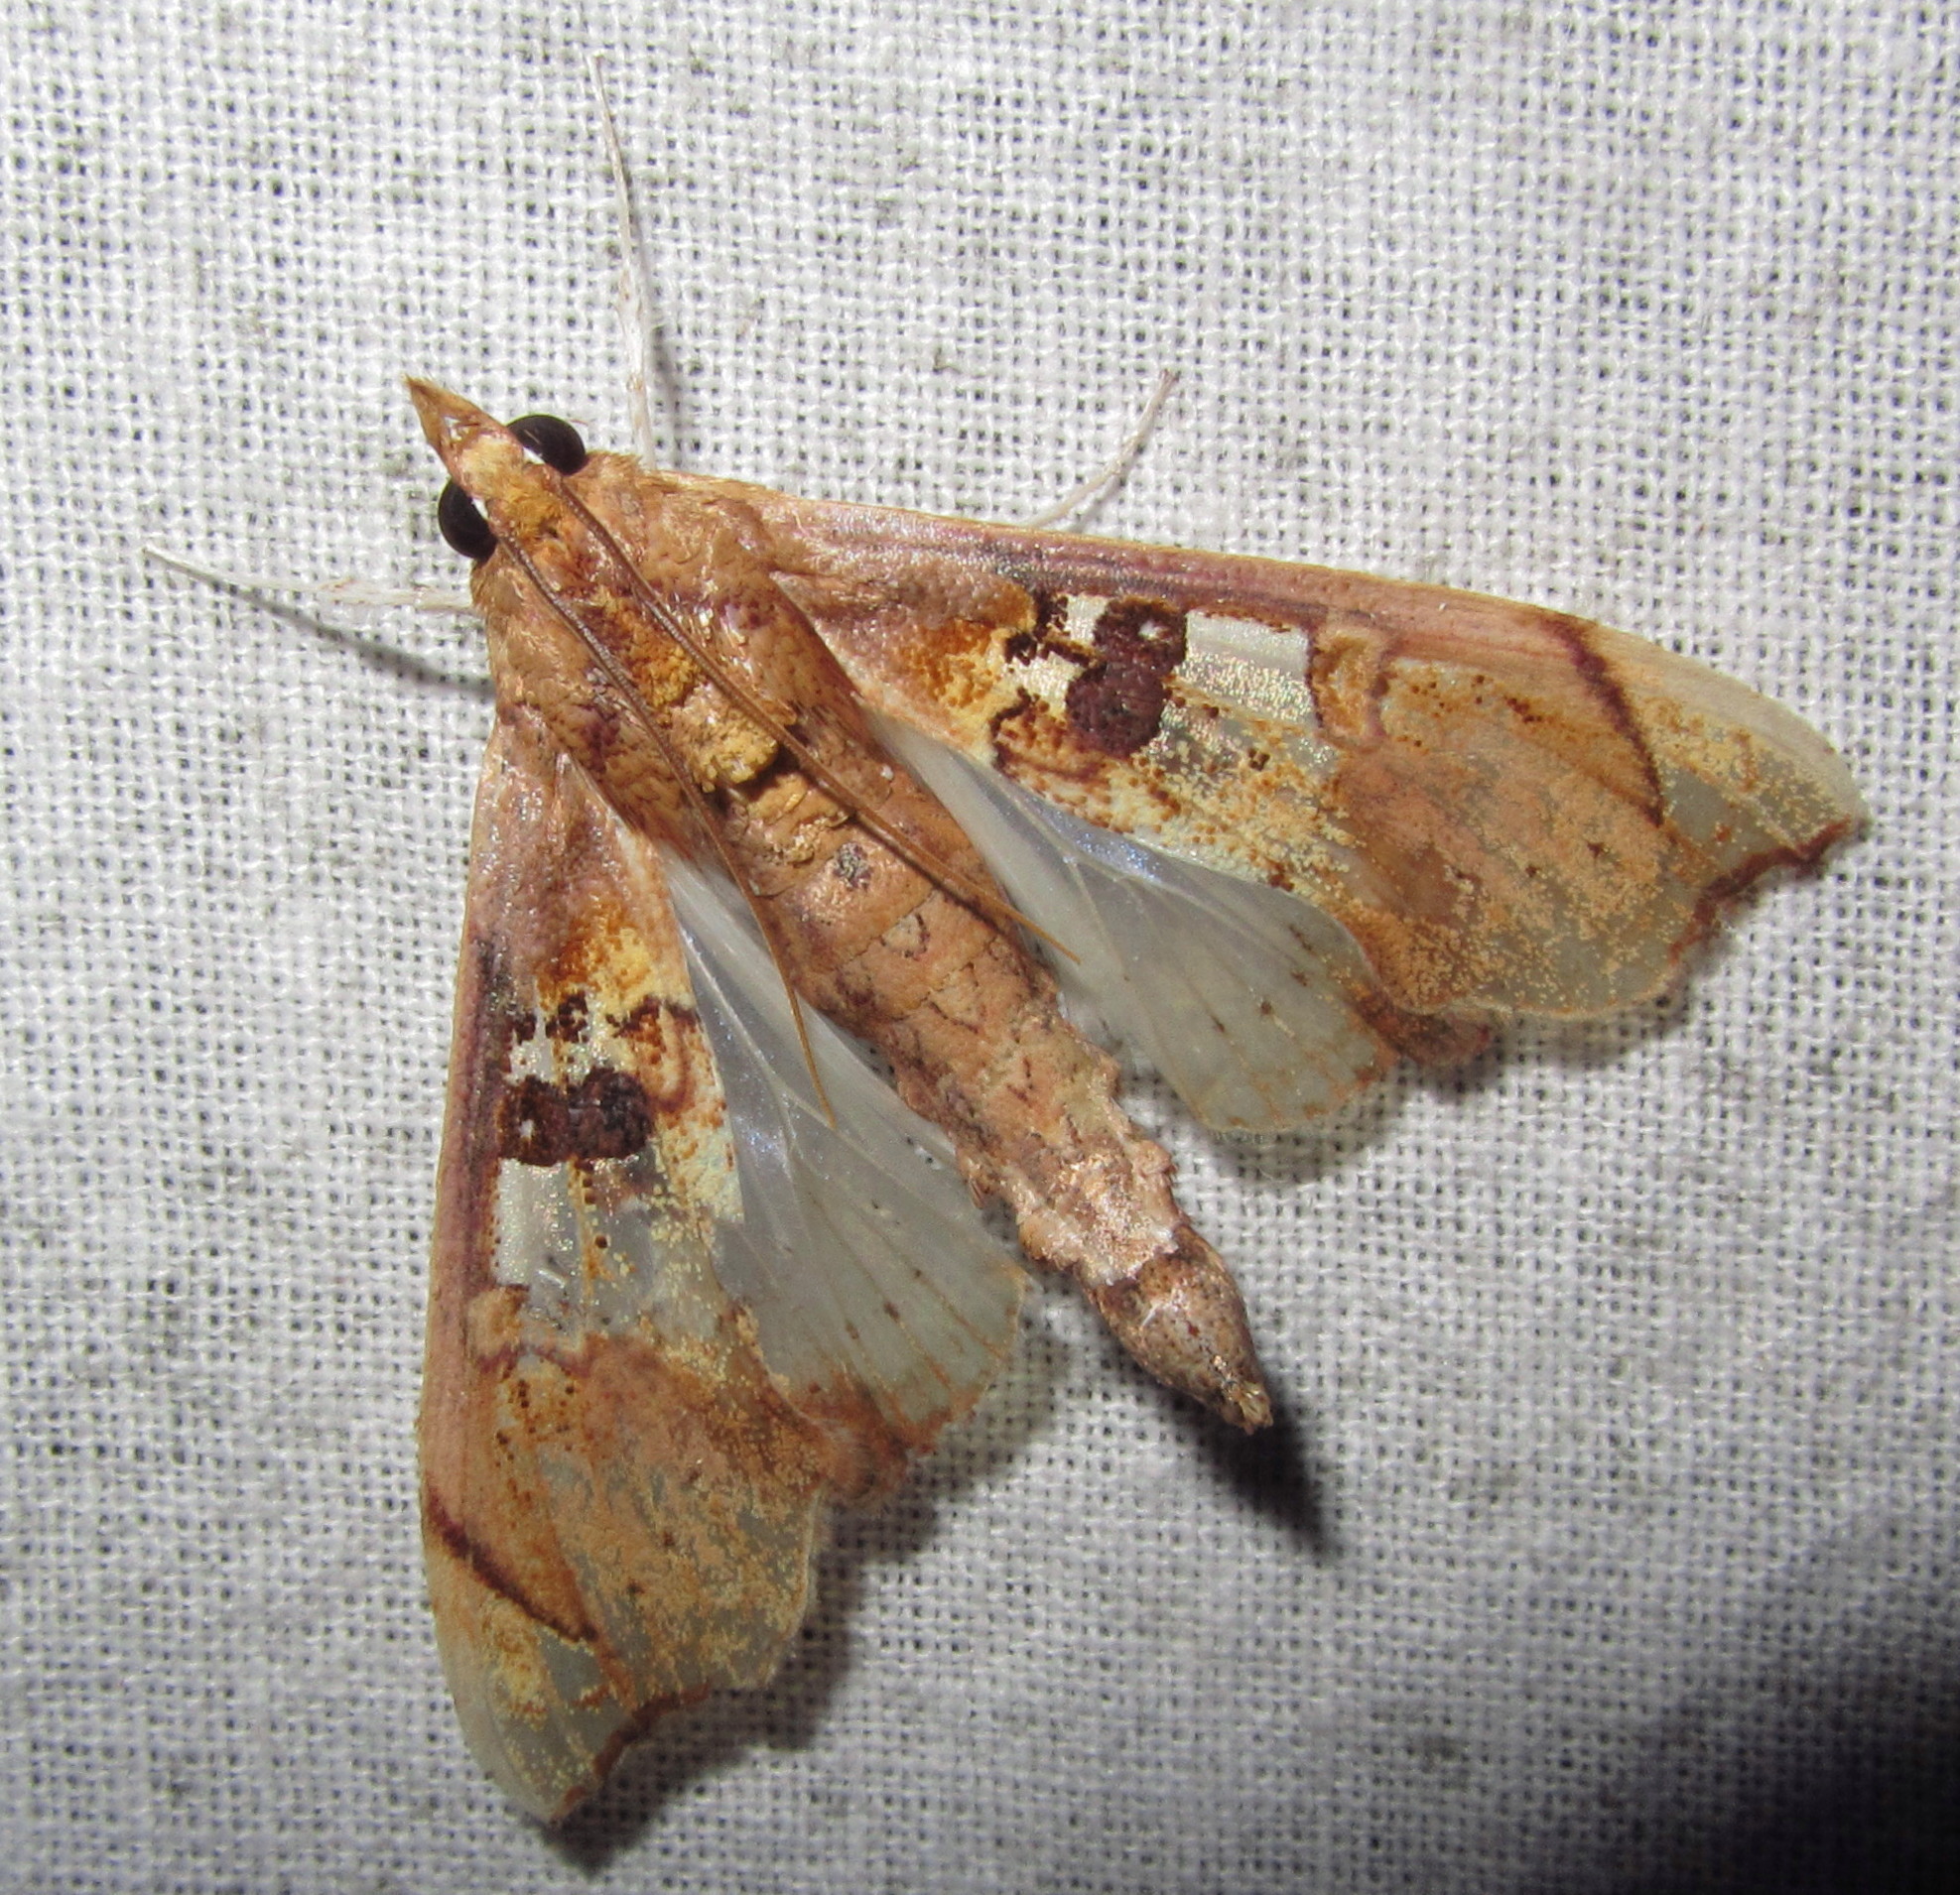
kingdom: Animalia
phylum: Arthropoda
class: Insecta
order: Lepidoptera
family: Crambidae
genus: Terastia
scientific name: Terastia egialealis
